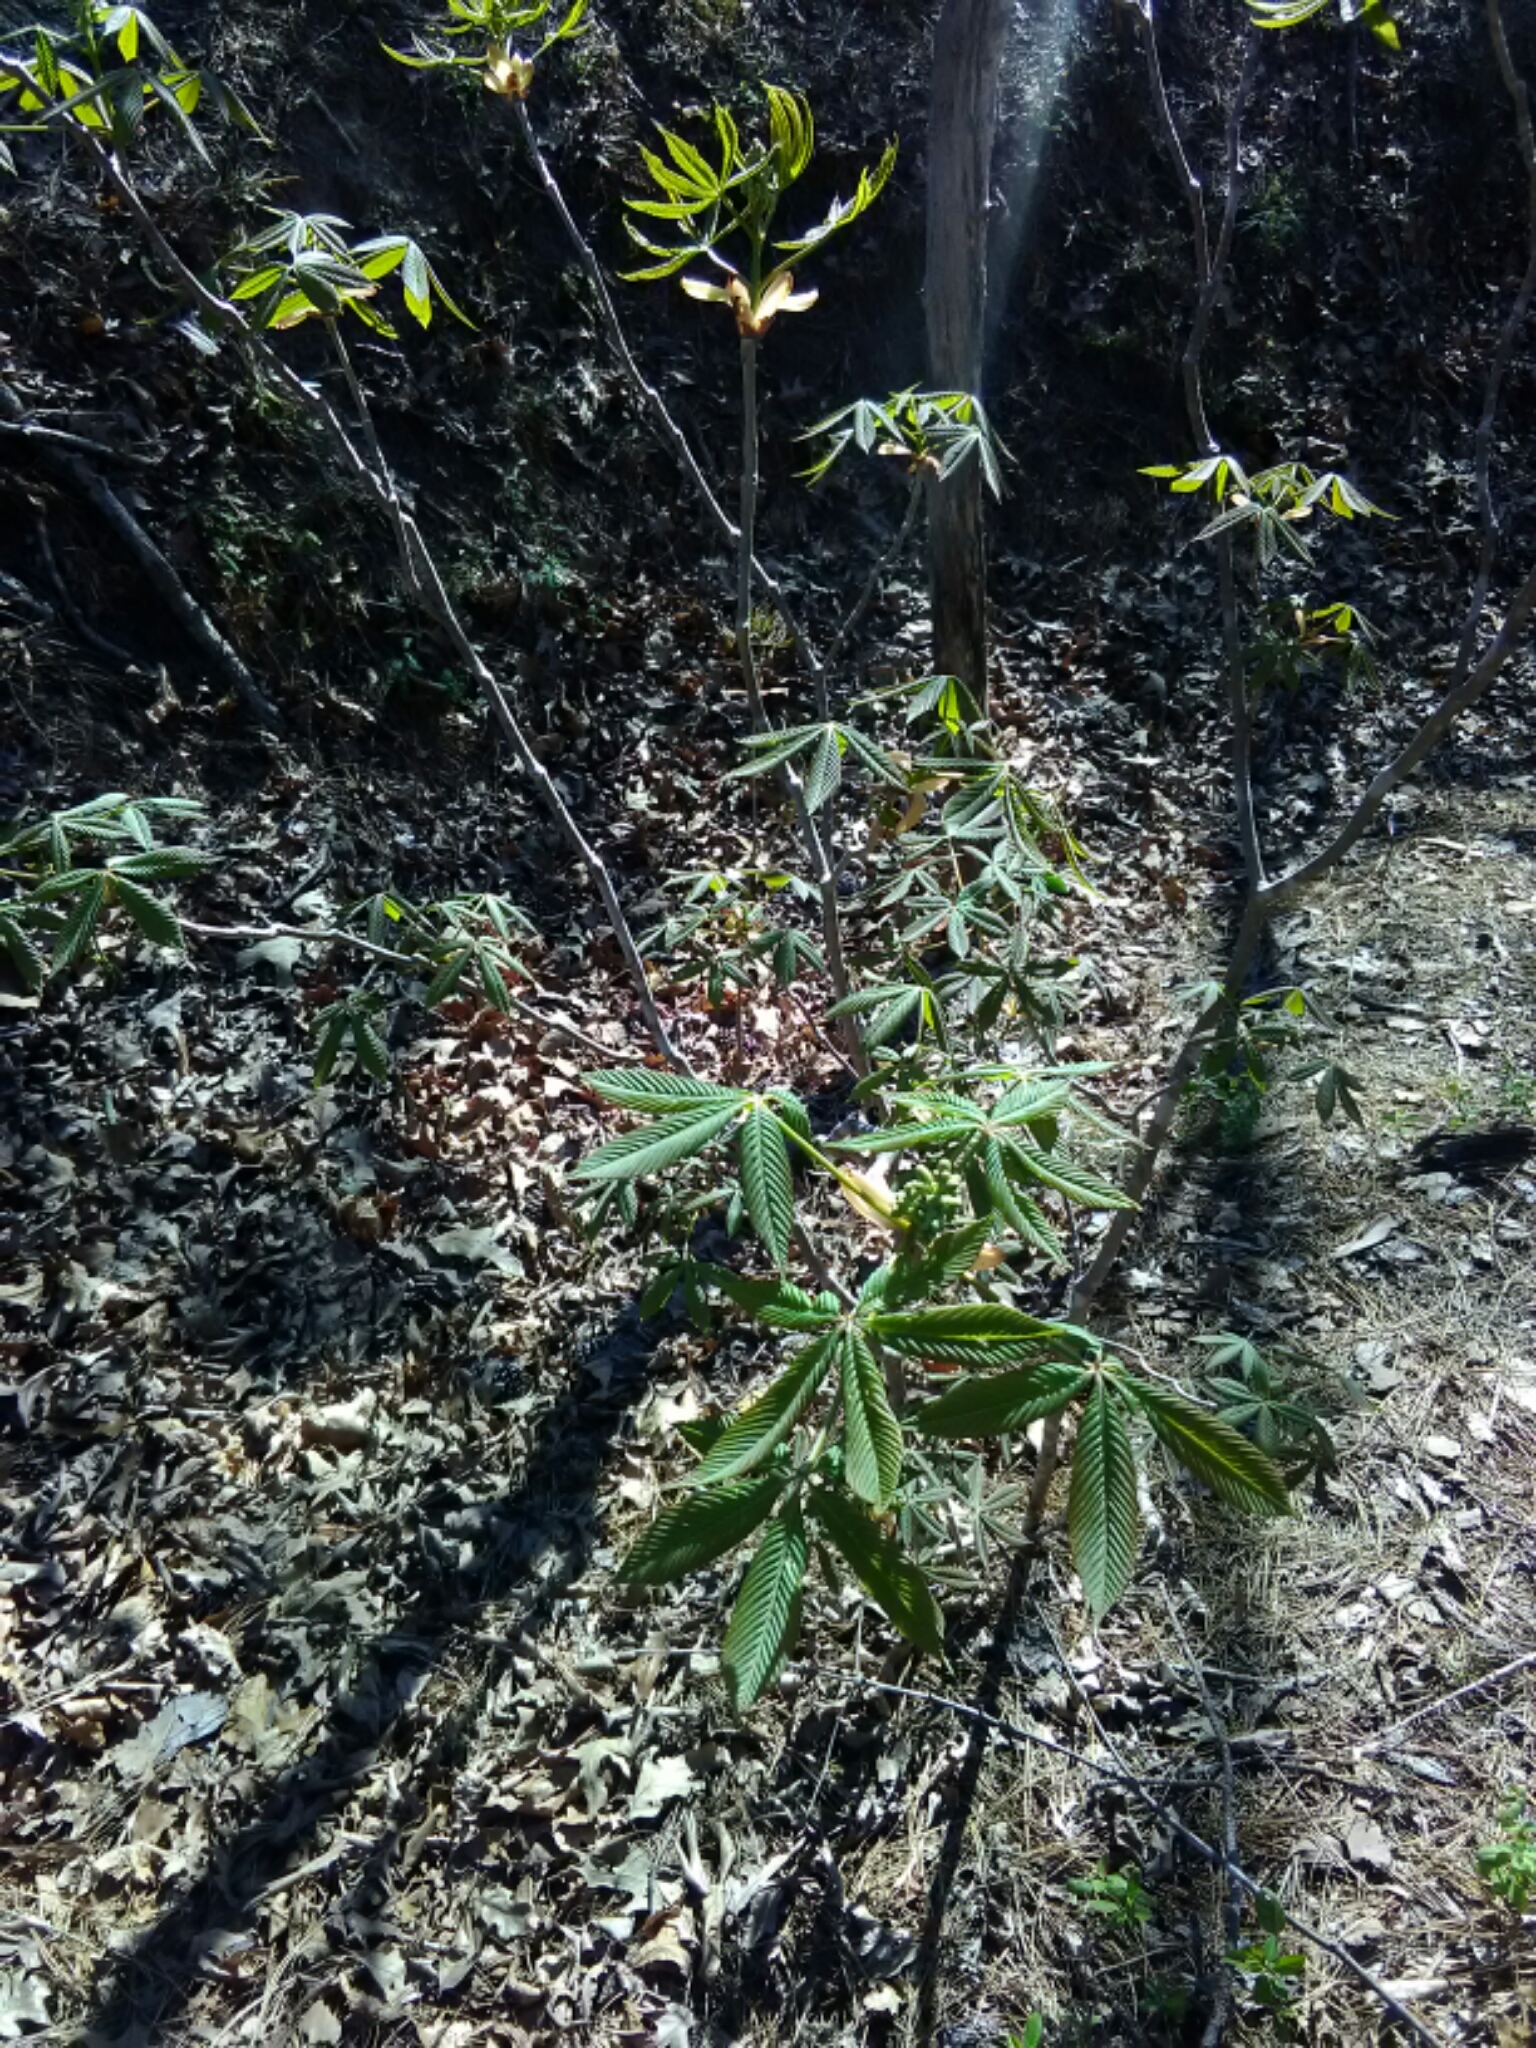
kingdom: Plantae
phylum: Tracheophyta
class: Magnoliopsida
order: Sapindales
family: Sapindaceae
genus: Aesculus
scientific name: Aesculus sylvatica
